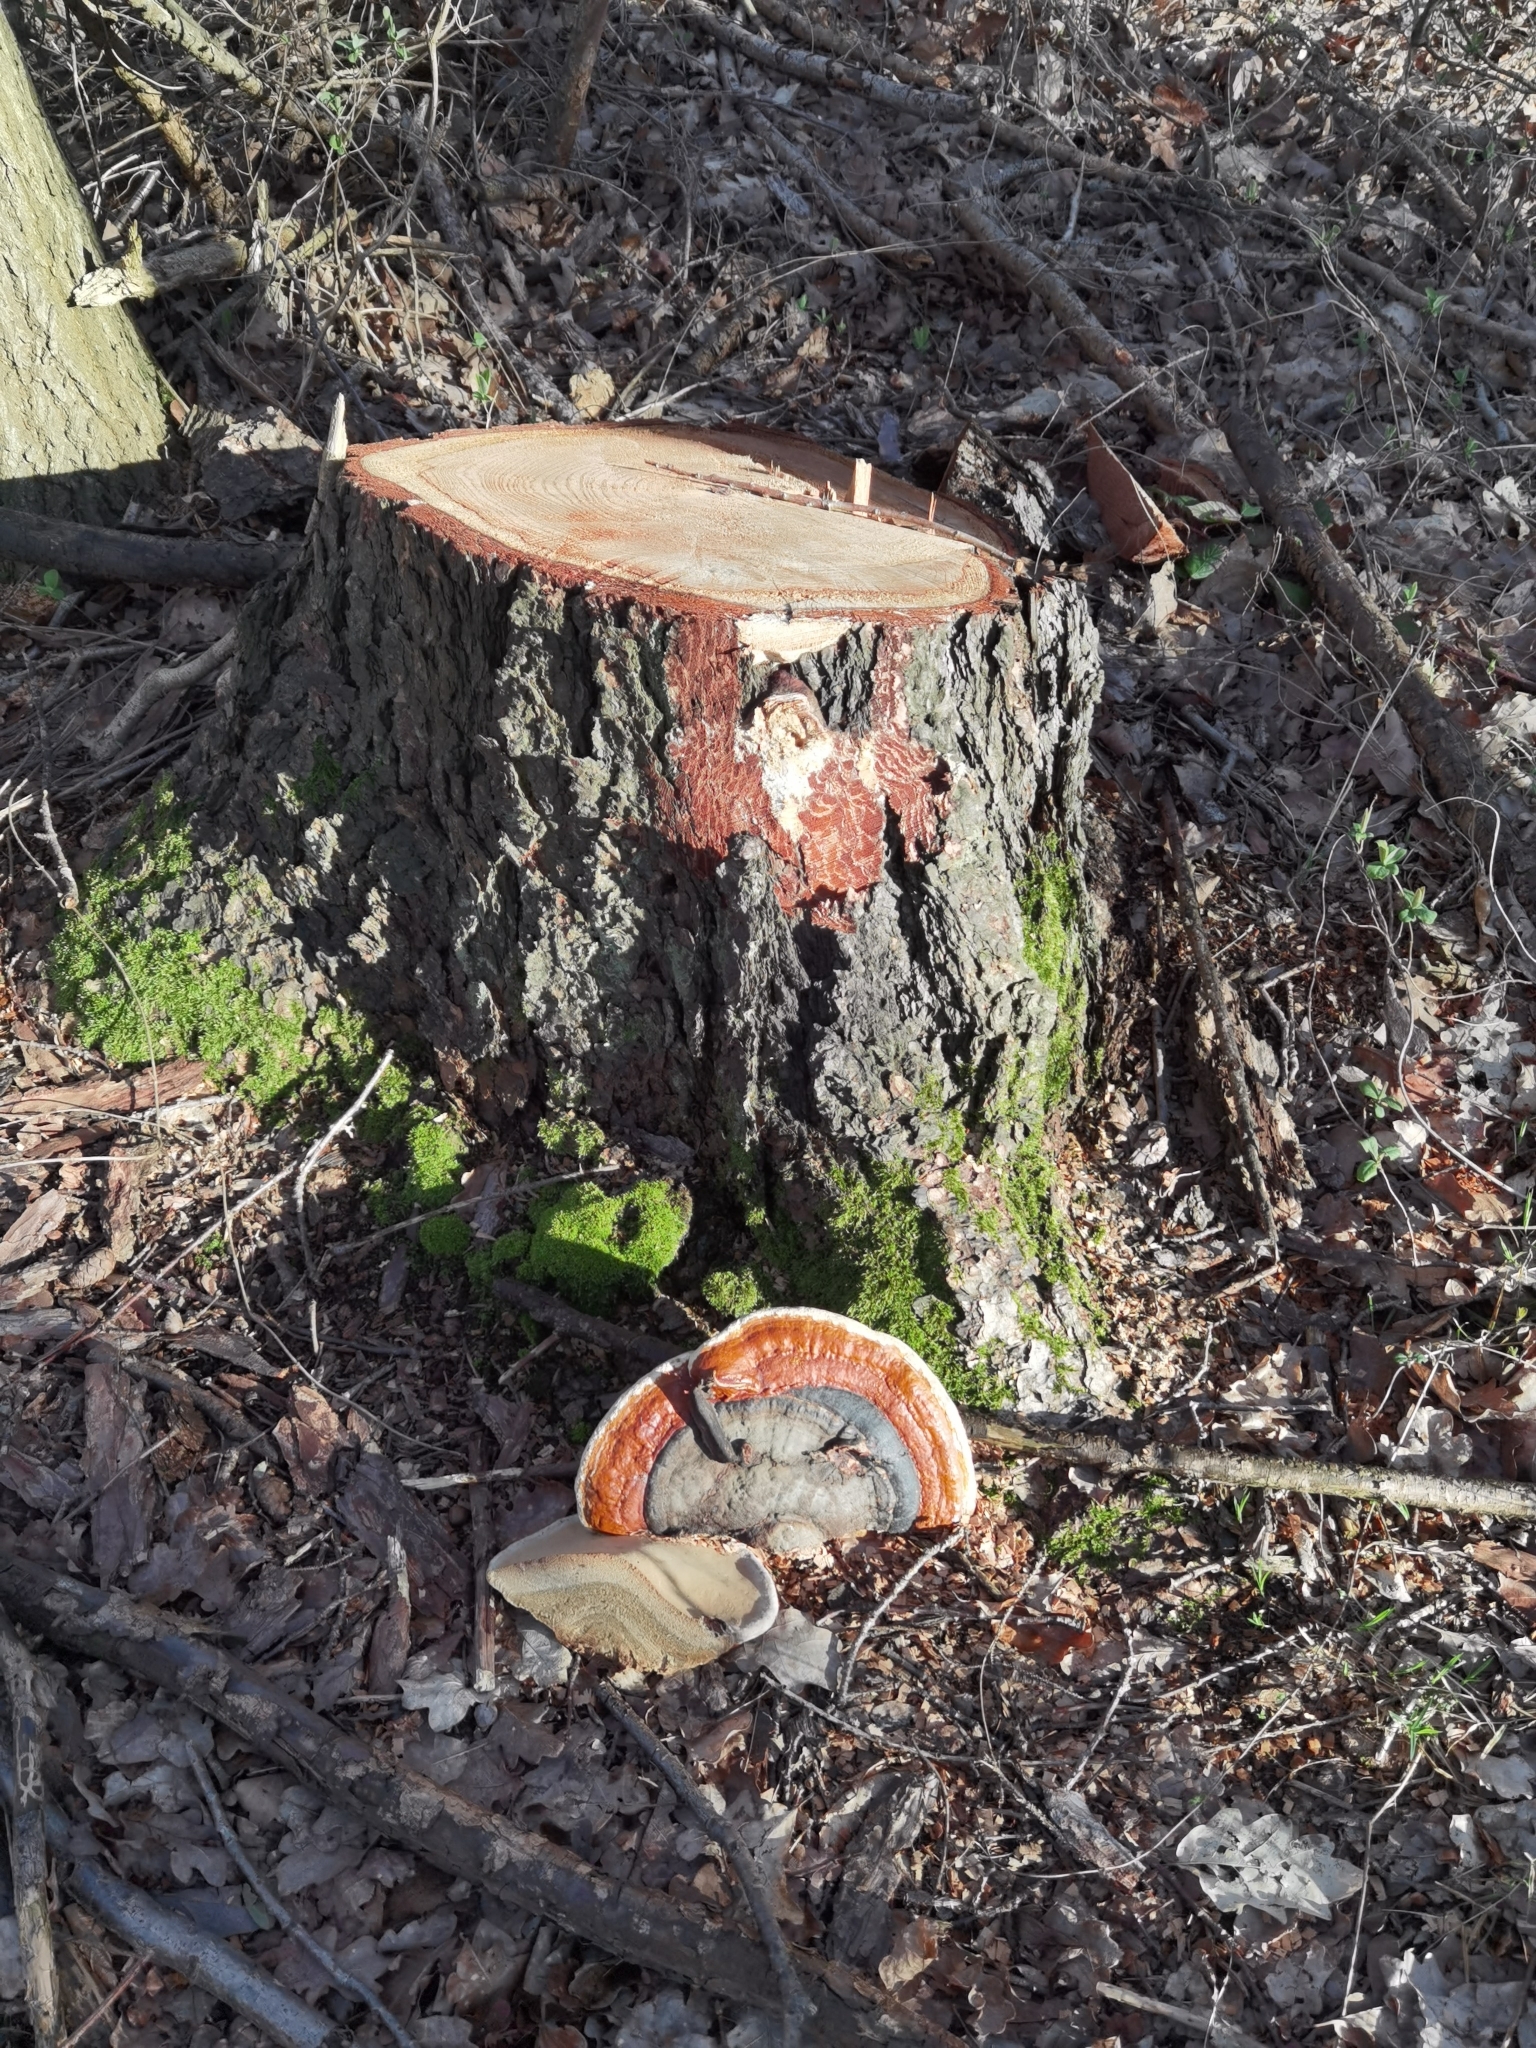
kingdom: Fungi
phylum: Basidiomycota
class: Agaricomycetes
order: Polyporales
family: Fomitopsidaceae
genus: Fomitopsis
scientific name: Fomitopsis pinicola
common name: Red-belted bracket
